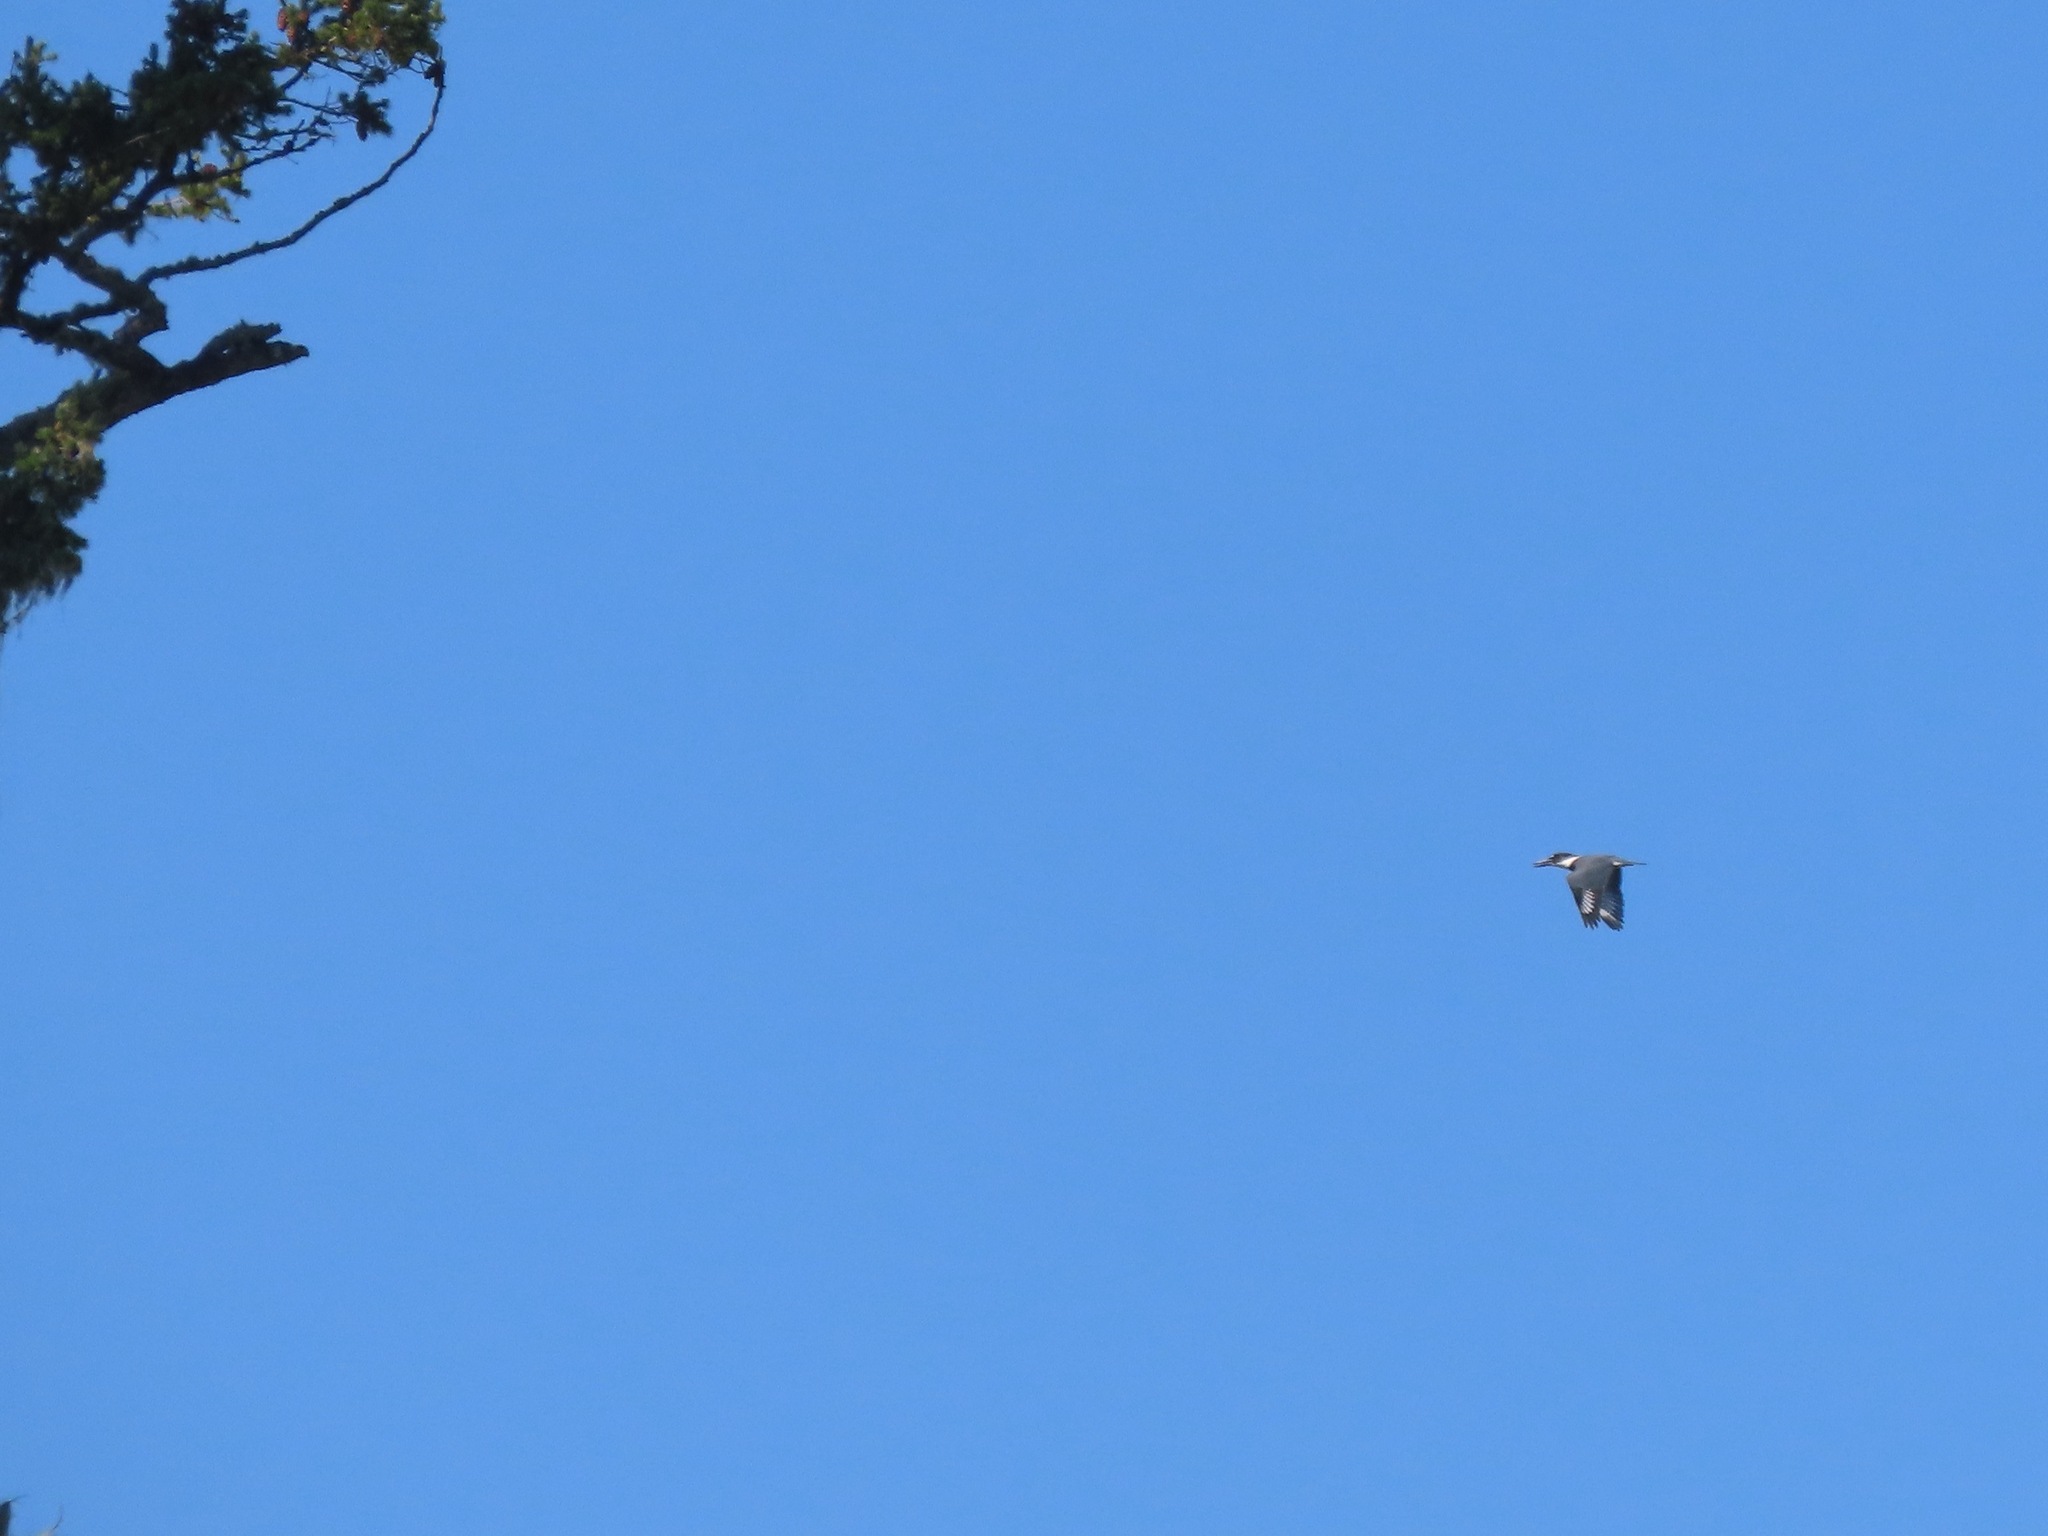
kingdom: Animalia
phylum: Chordata
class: Aves
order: Coraciiformes
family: Alcedinidae
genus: Megaceryle
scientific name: Megaceryle alcyon
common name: Belted kingfisher
